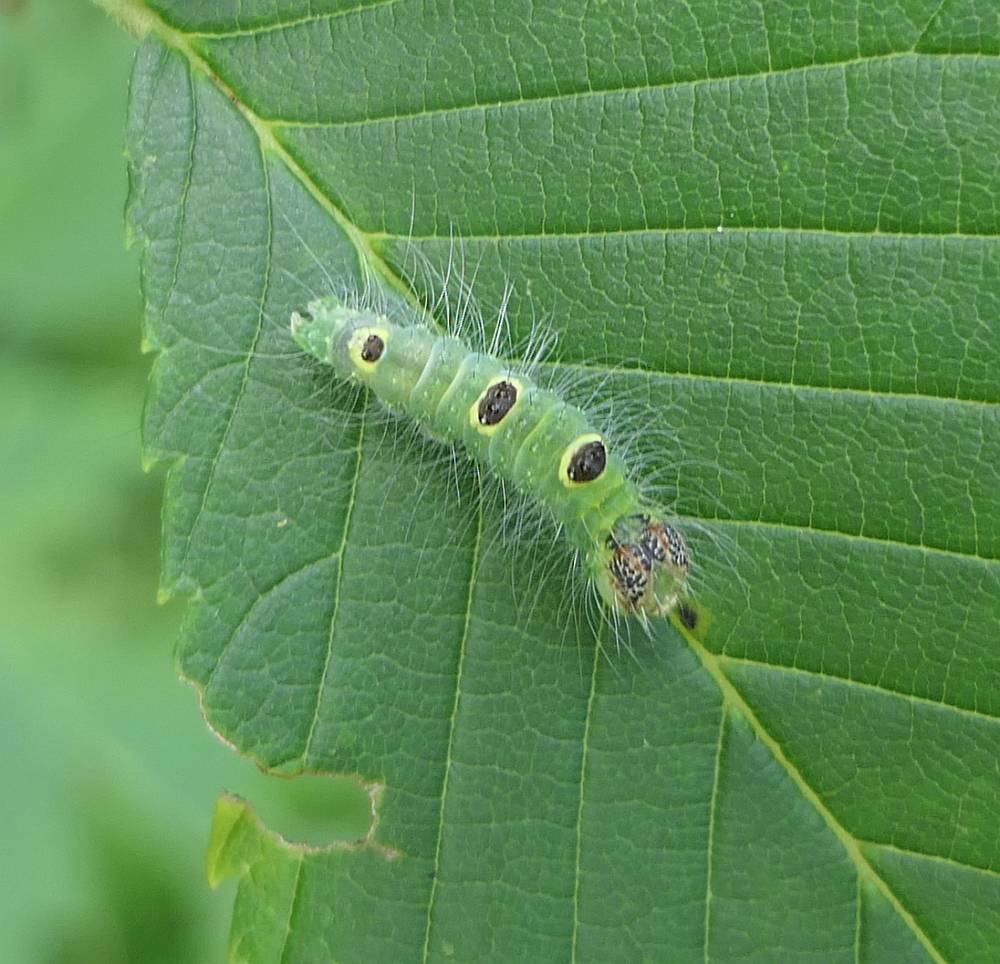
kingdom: Animalia
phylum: Arthropoda
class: Insecta
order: Lepidoptera
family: Noctuidae
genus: Acronicta
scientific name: Acronicta morula
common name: Ochre dagger
